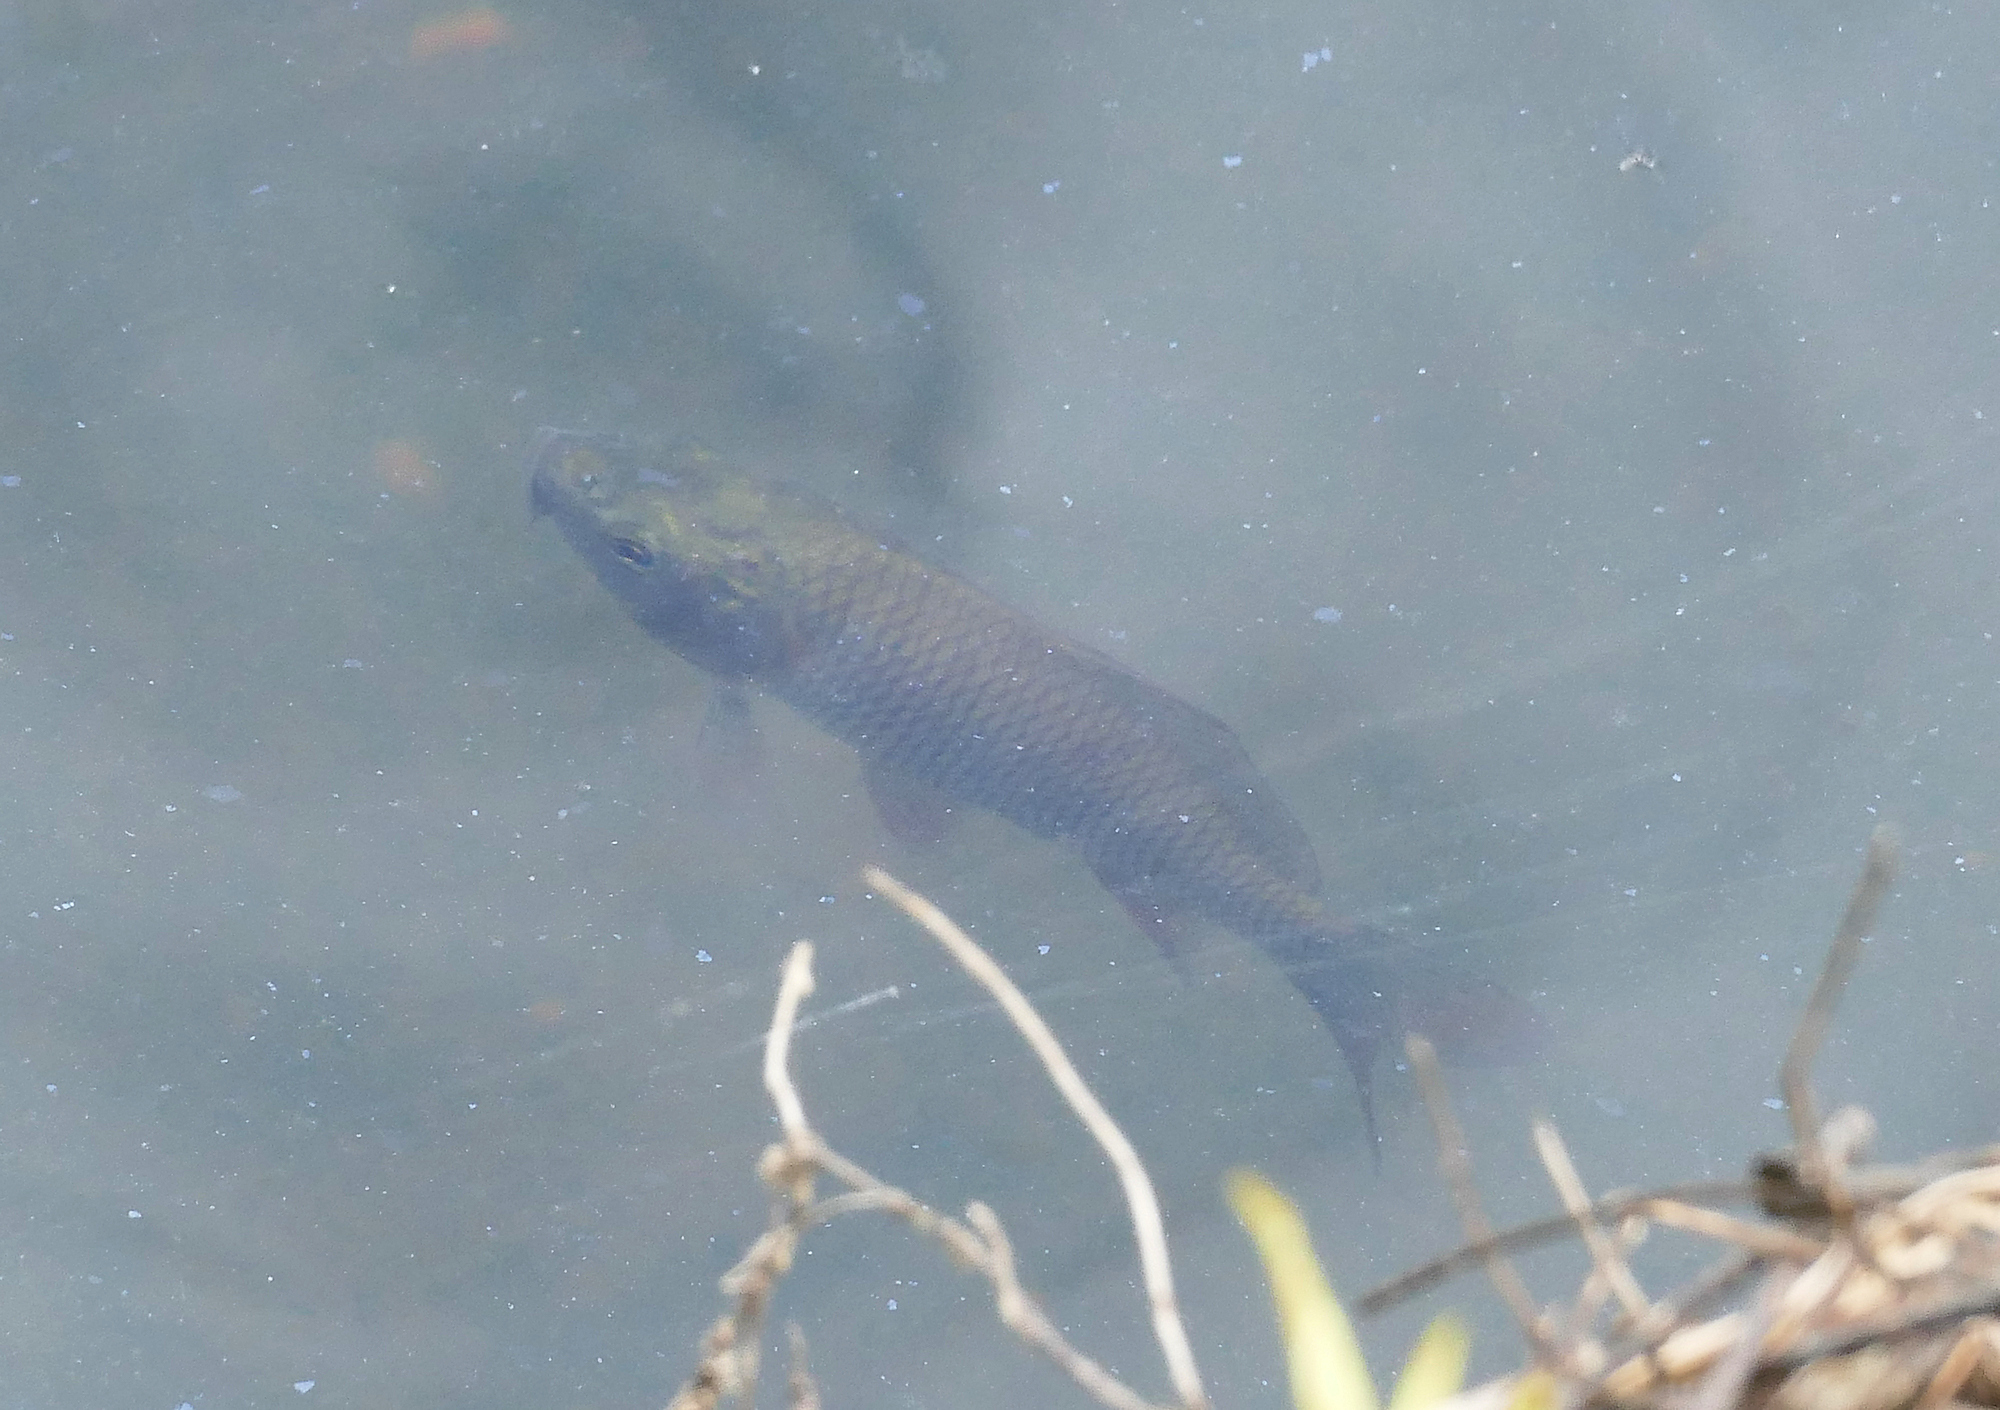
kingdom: Animalia
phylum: Chordata
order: Cypriniformes
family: Cyprinidae
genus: Cyprinus
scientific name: Cyprinus carpio
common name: Common carp
